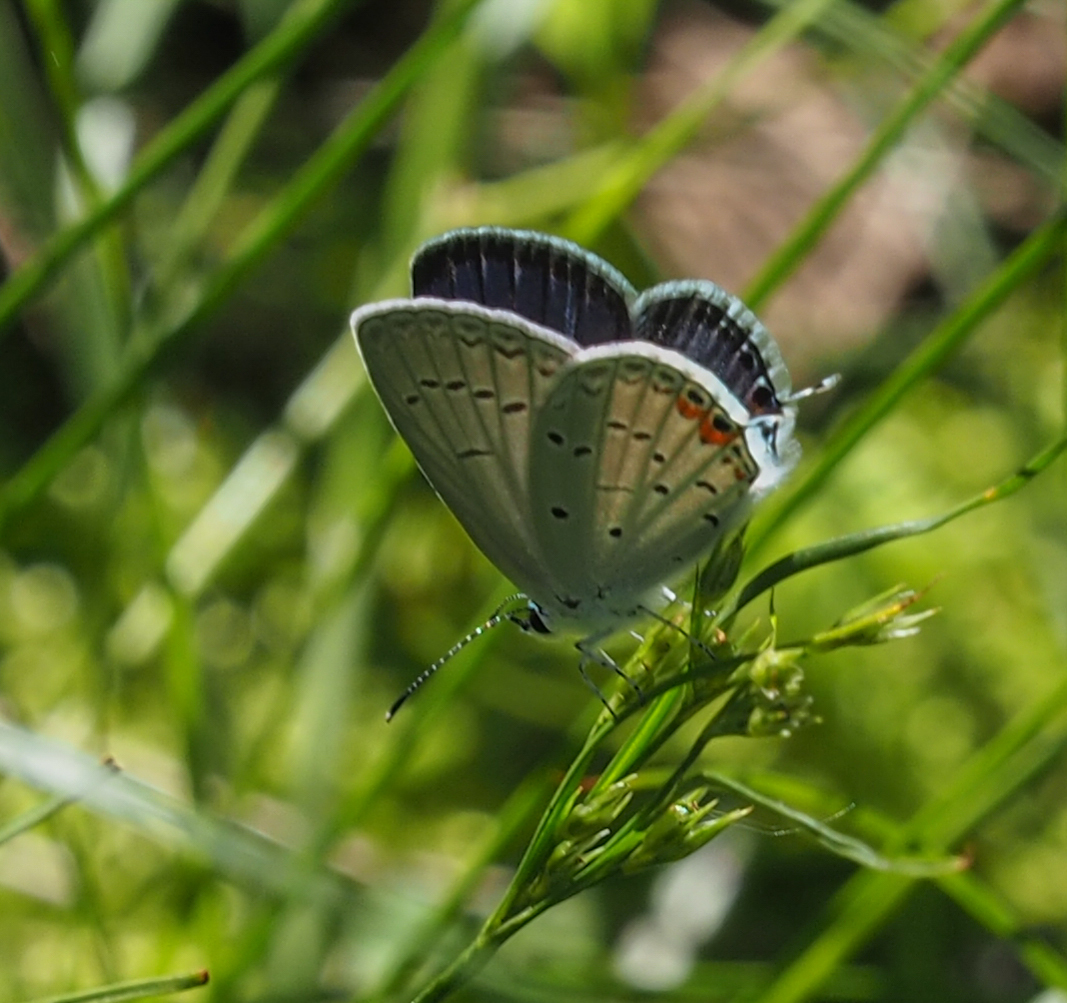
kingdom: Animalia
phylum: Arthropoda
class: Insecta
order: Lepidoptera
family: Lycaenidae
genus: Elkalyce
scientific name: Elkalyce comyntas
